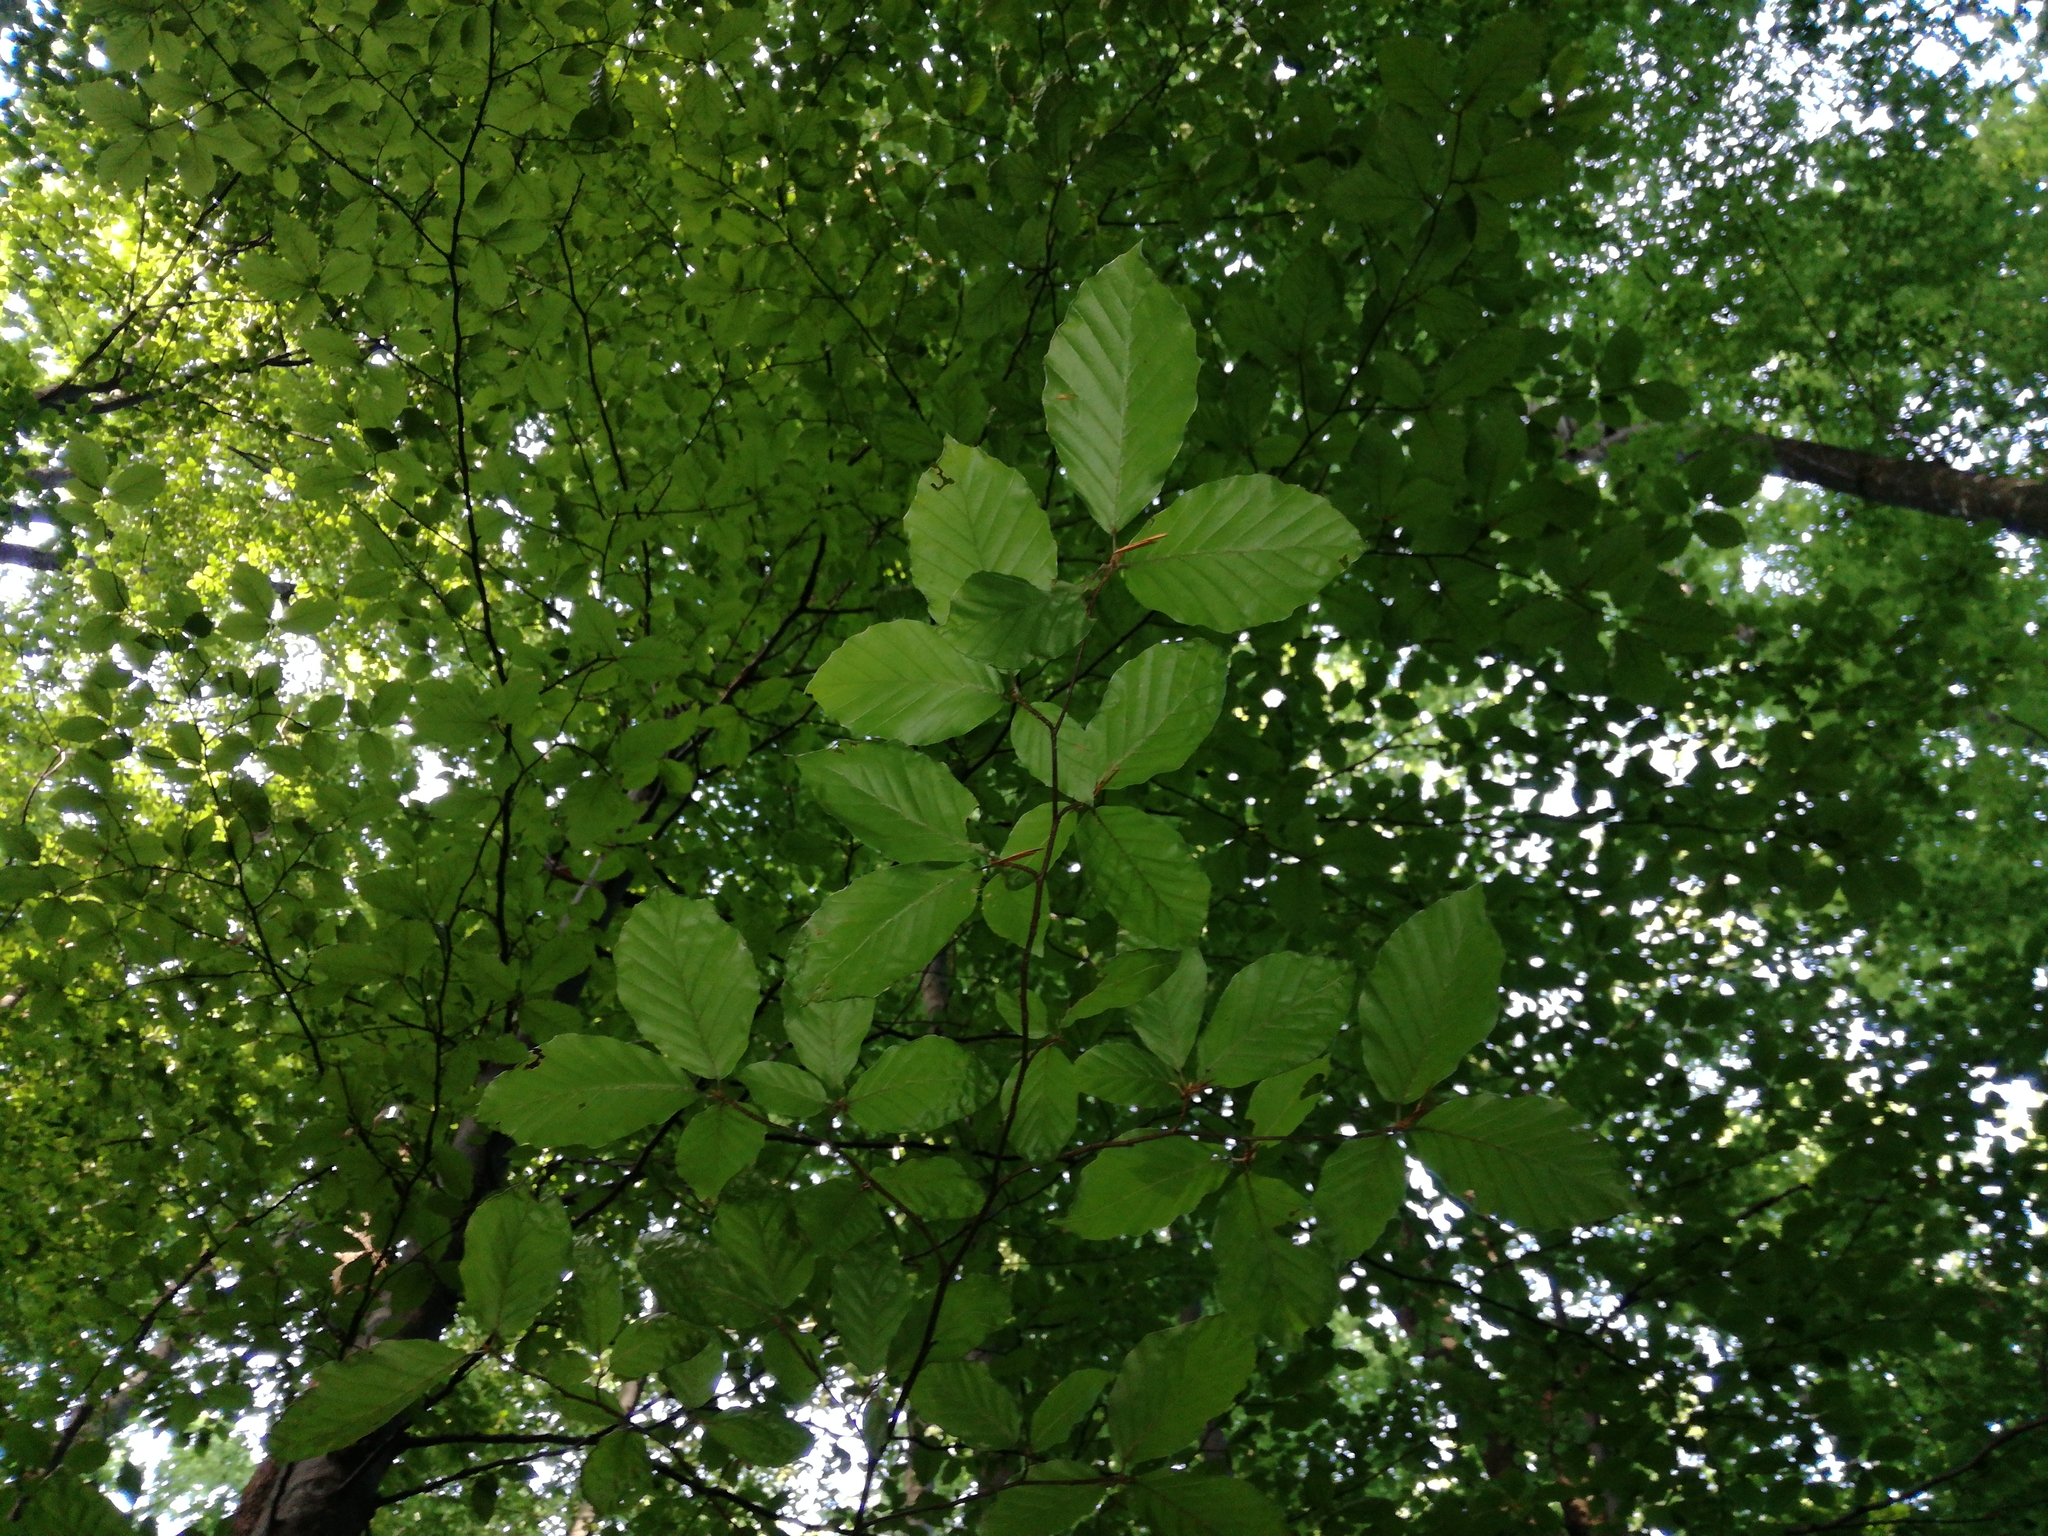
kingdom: Plantae
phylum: Tracheophyta
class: Magnoliopsida
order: Fagales
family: Fagaceae
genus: Fagus
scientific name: Fagus sylvatica
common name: Beech
